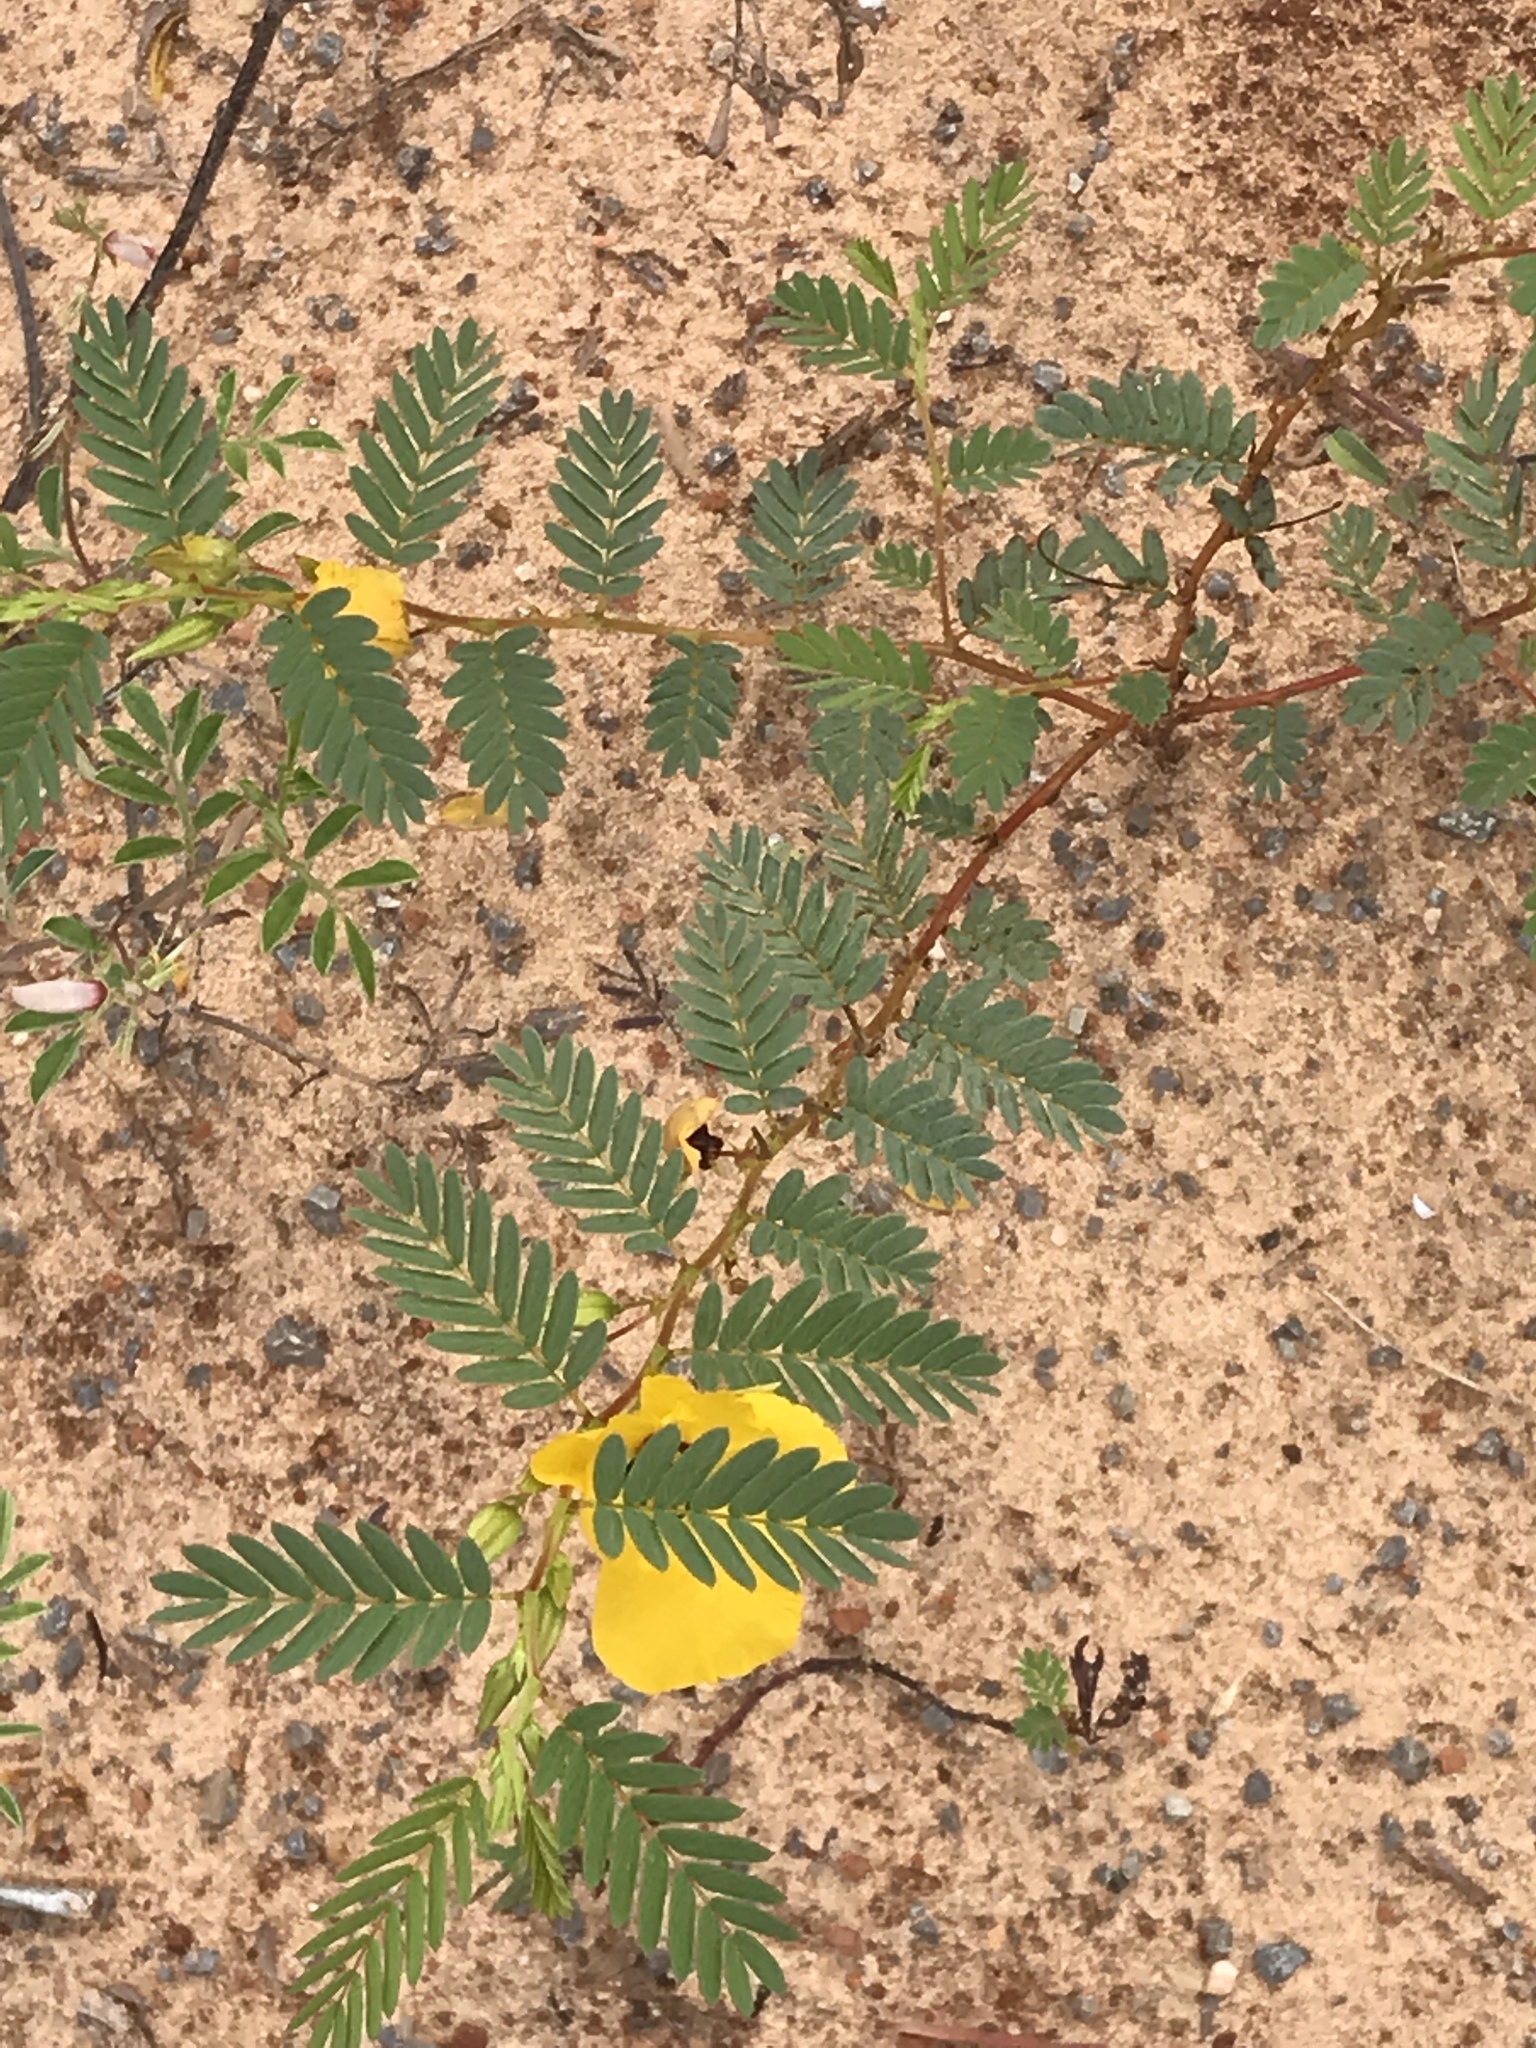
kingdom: Plantae
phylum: Tracheophyta
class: Magnoliopsida
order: Fabales
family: Fabaceae
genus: Chamaecrista
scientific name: Chamaecrista fasciculata
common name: Golden cassia
